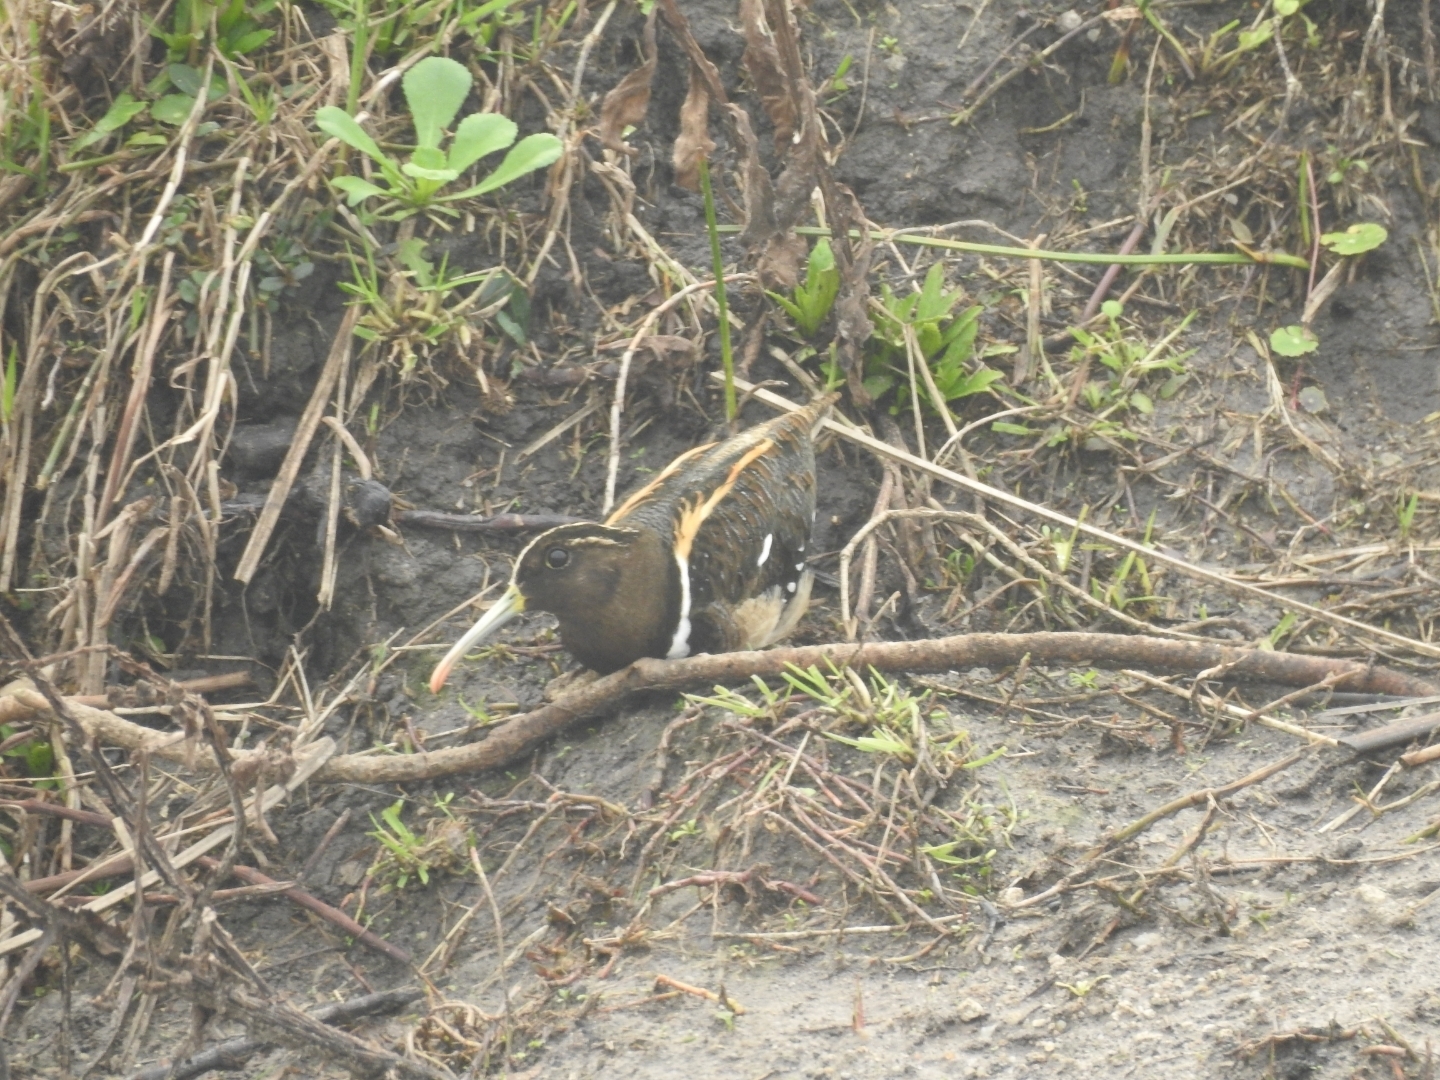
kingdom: Animalia
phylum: Chordata
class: Aves
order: Charadriiformes
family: Rostratulidae
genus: Nycticryphes
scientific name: Nycticryphes semicollaris
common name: South american painted-snipe
